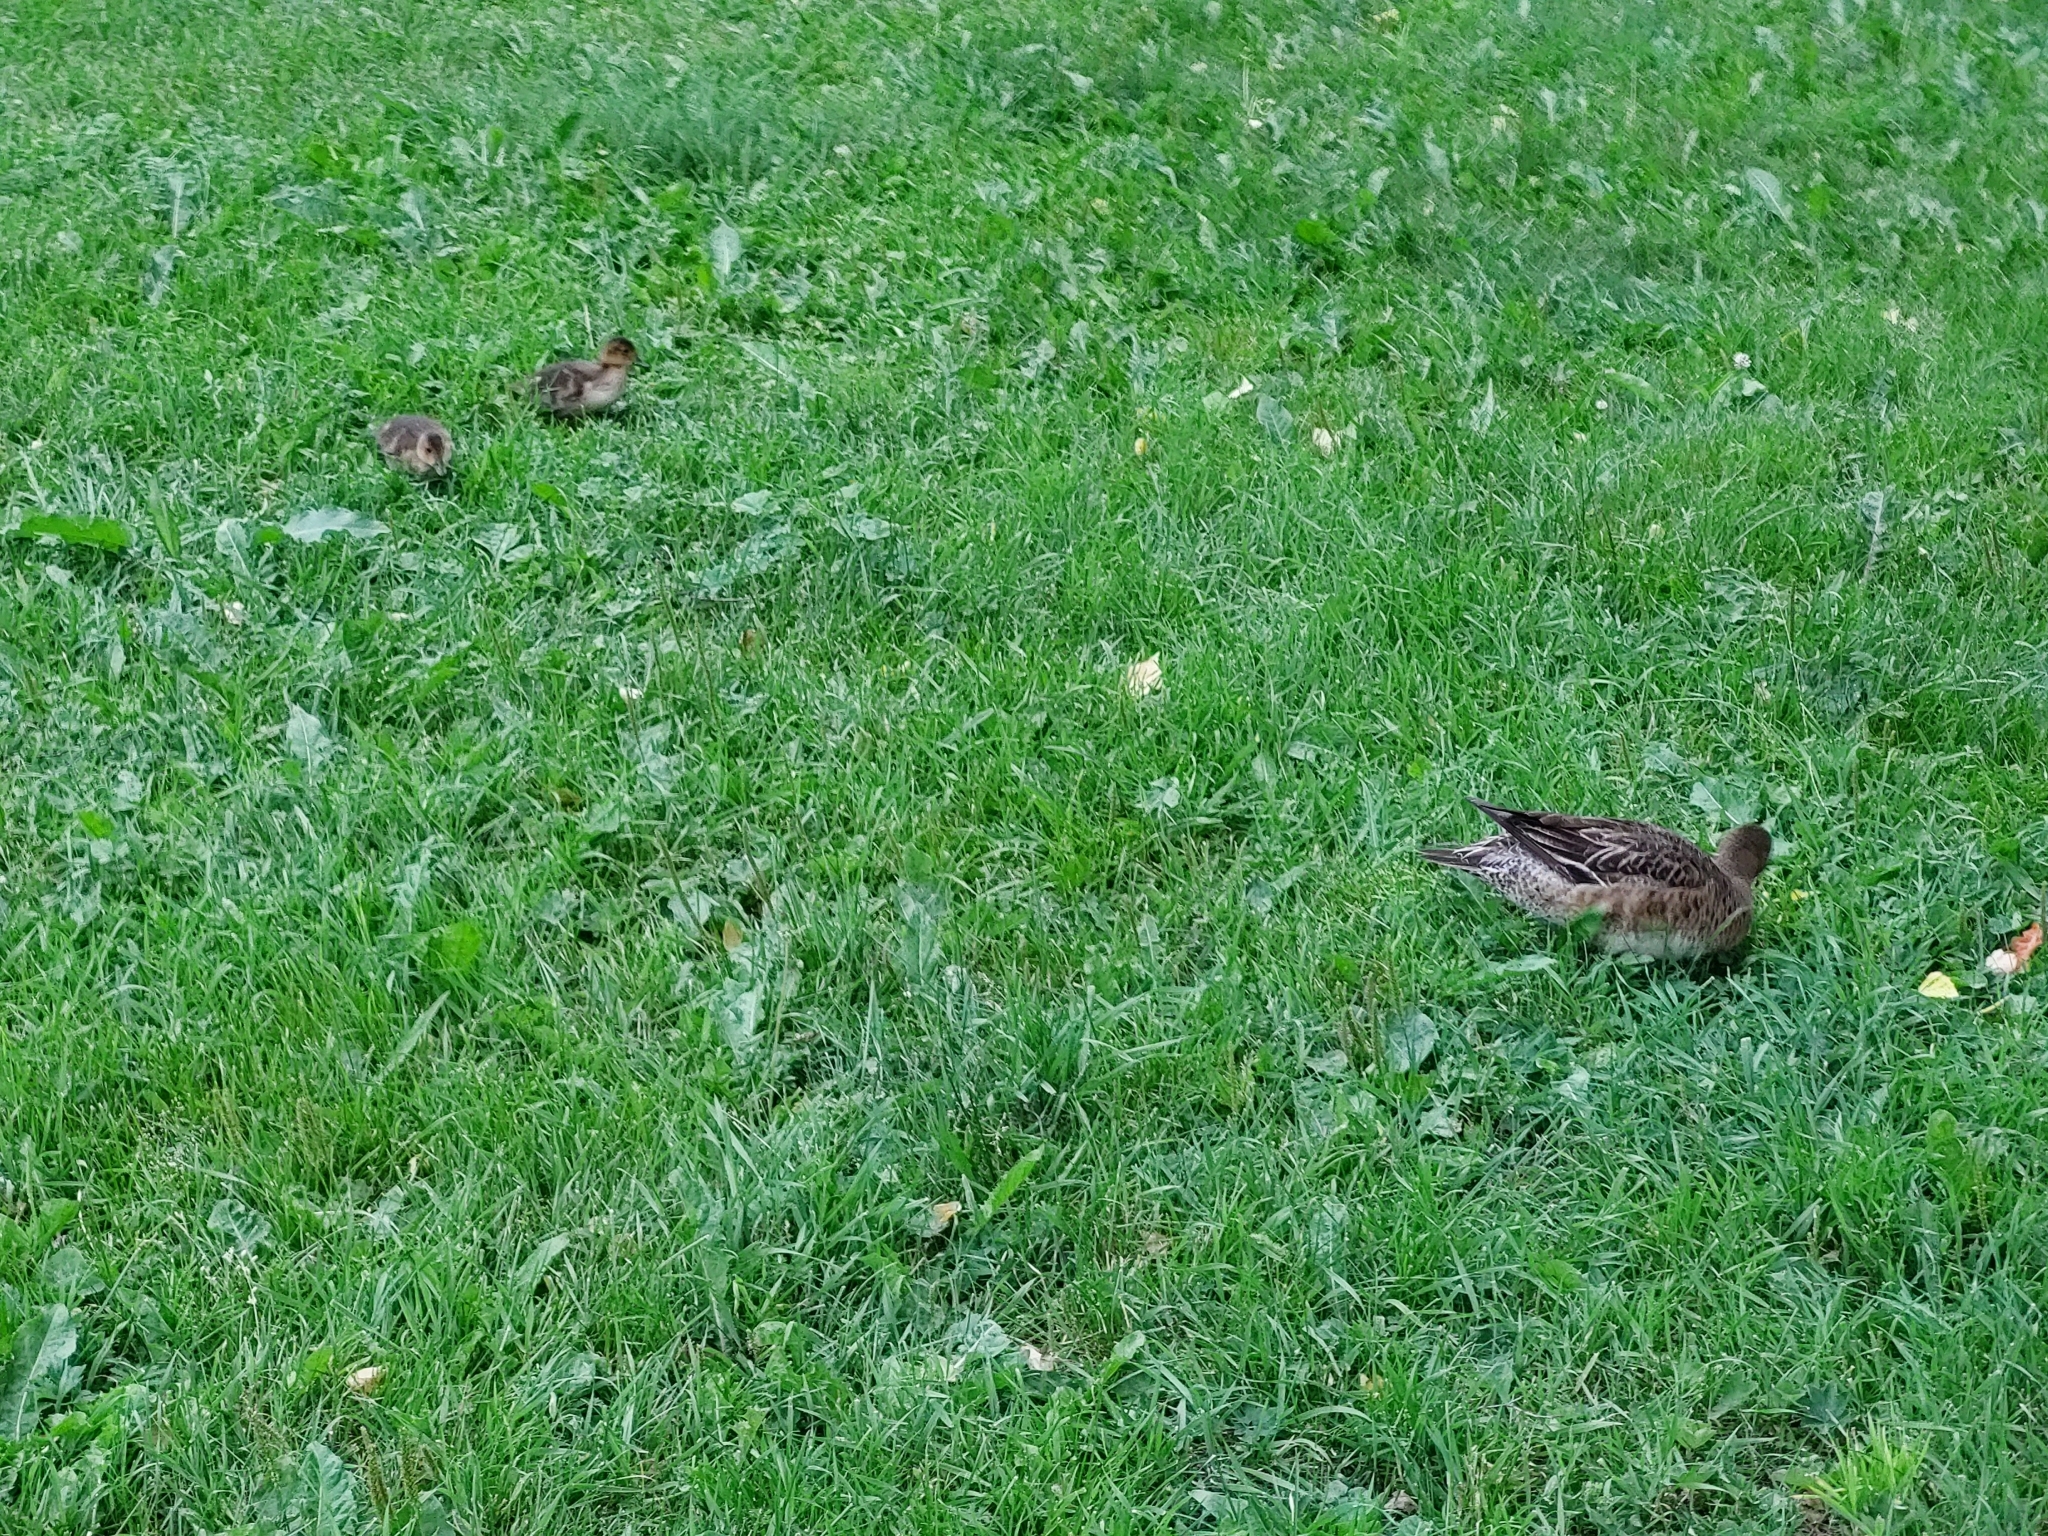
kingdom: Animalia
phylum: Chordata
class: Aves
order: Anseriformes
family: Anatidae
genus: Mareca
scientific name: Mareca penelope
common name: Eurasian wigeon
